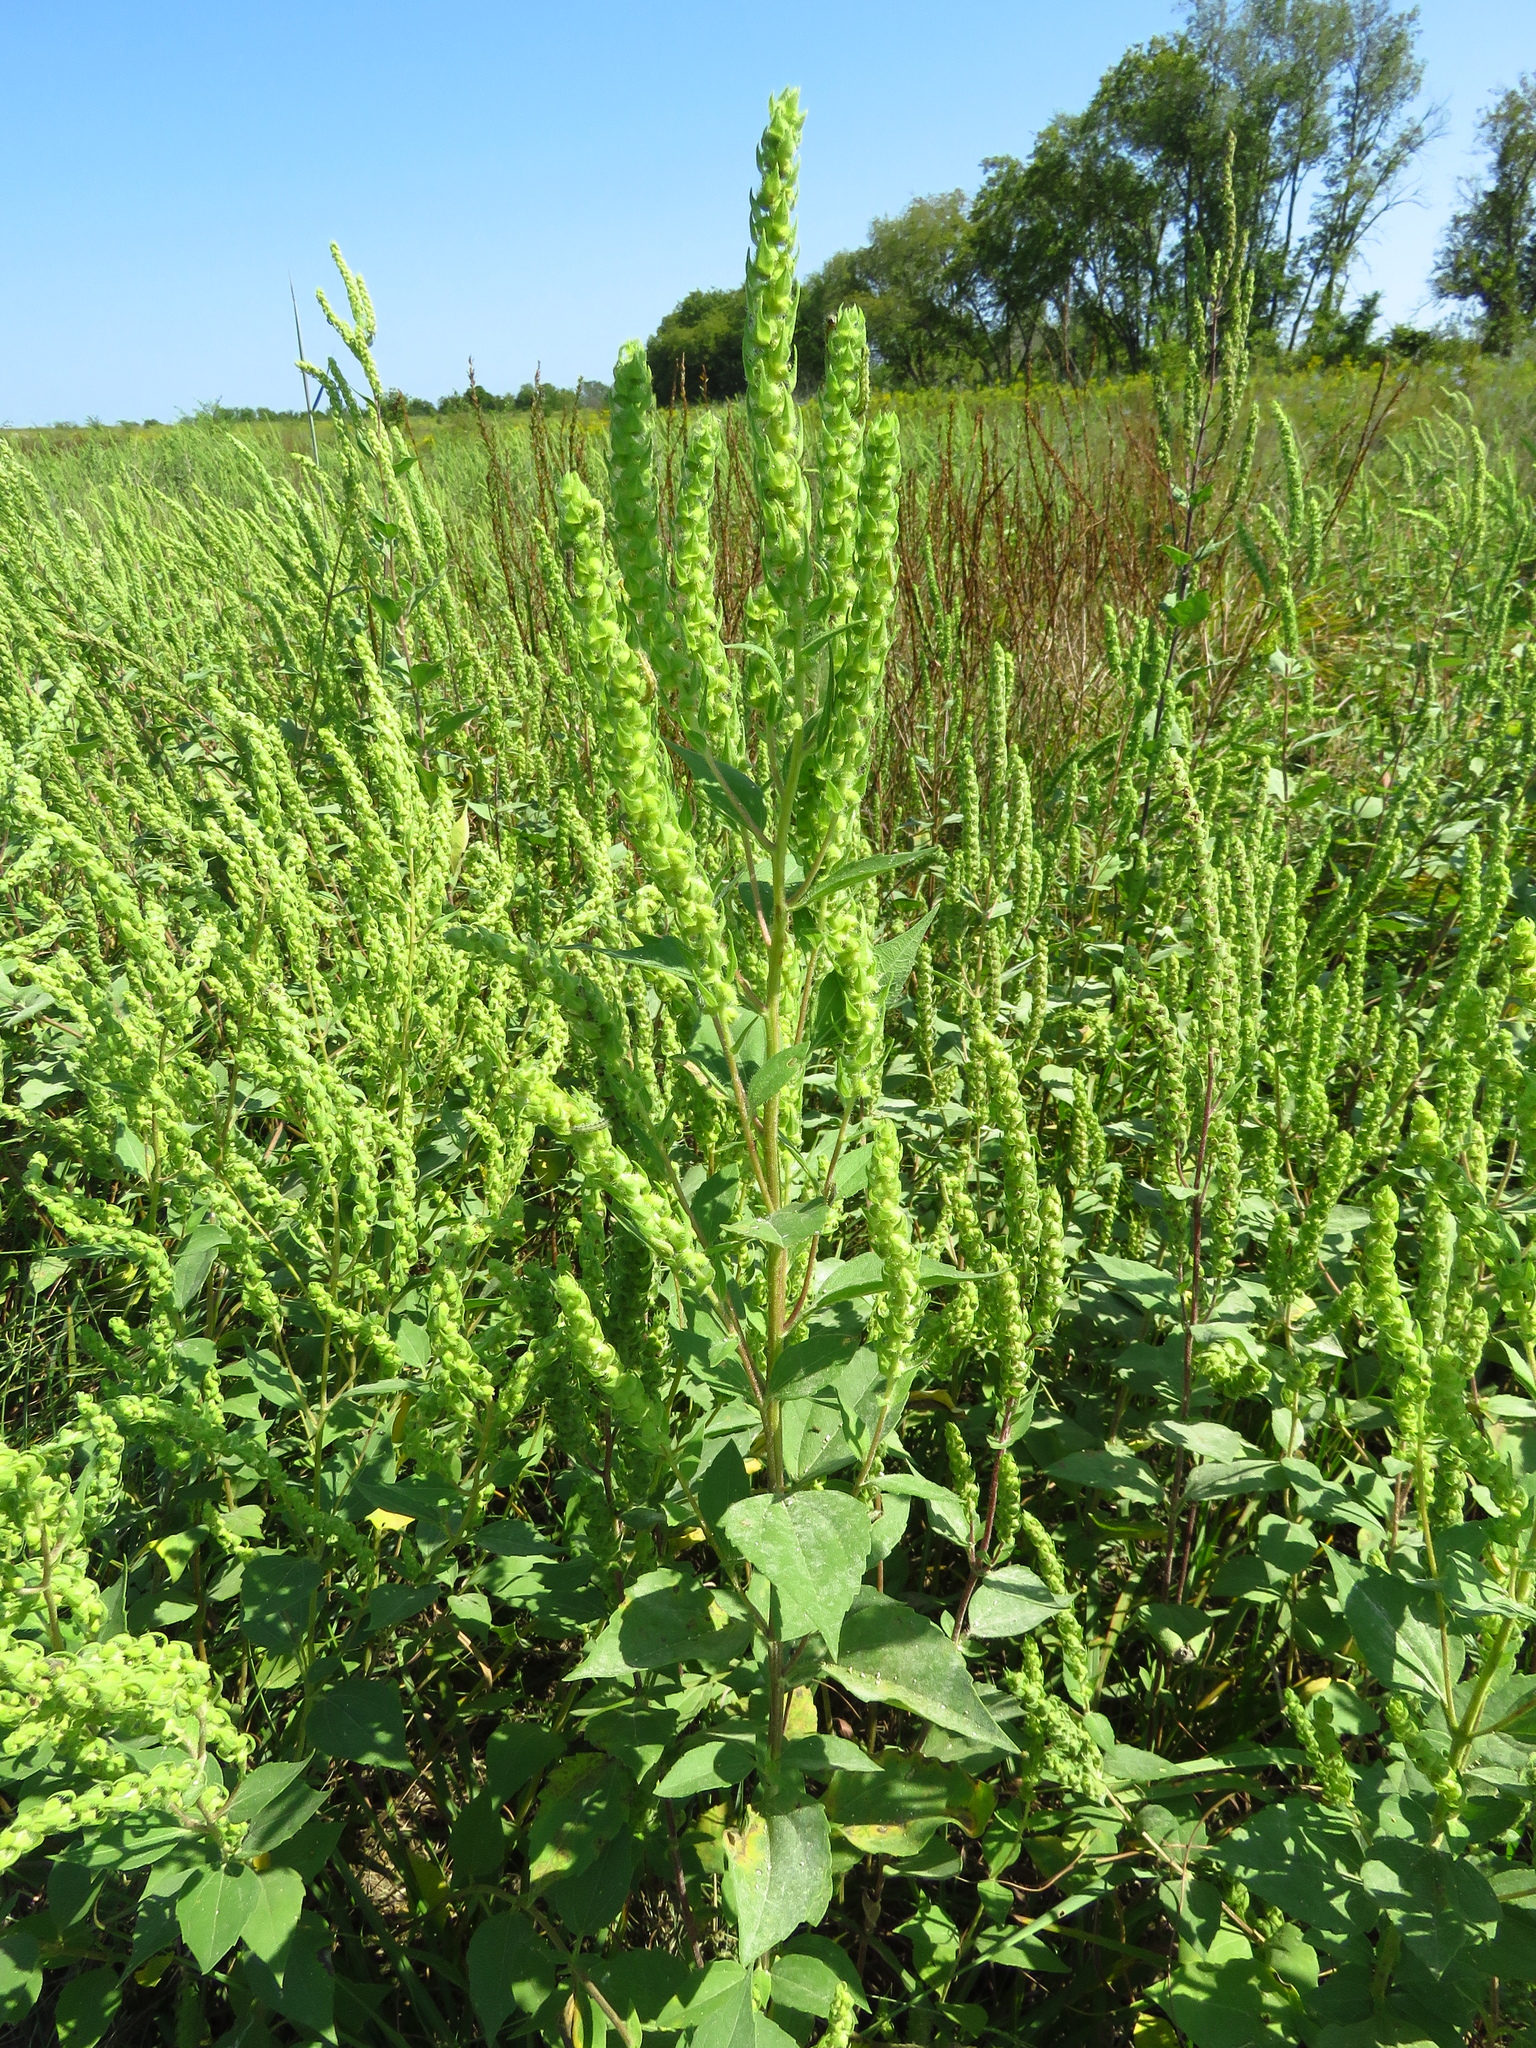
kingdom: Plantae
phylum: Tracheophyta
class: Magnoliopsida
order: Asterales
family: Asteraceae
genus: Iva
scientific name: Iva annua
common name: Marsh-elder
